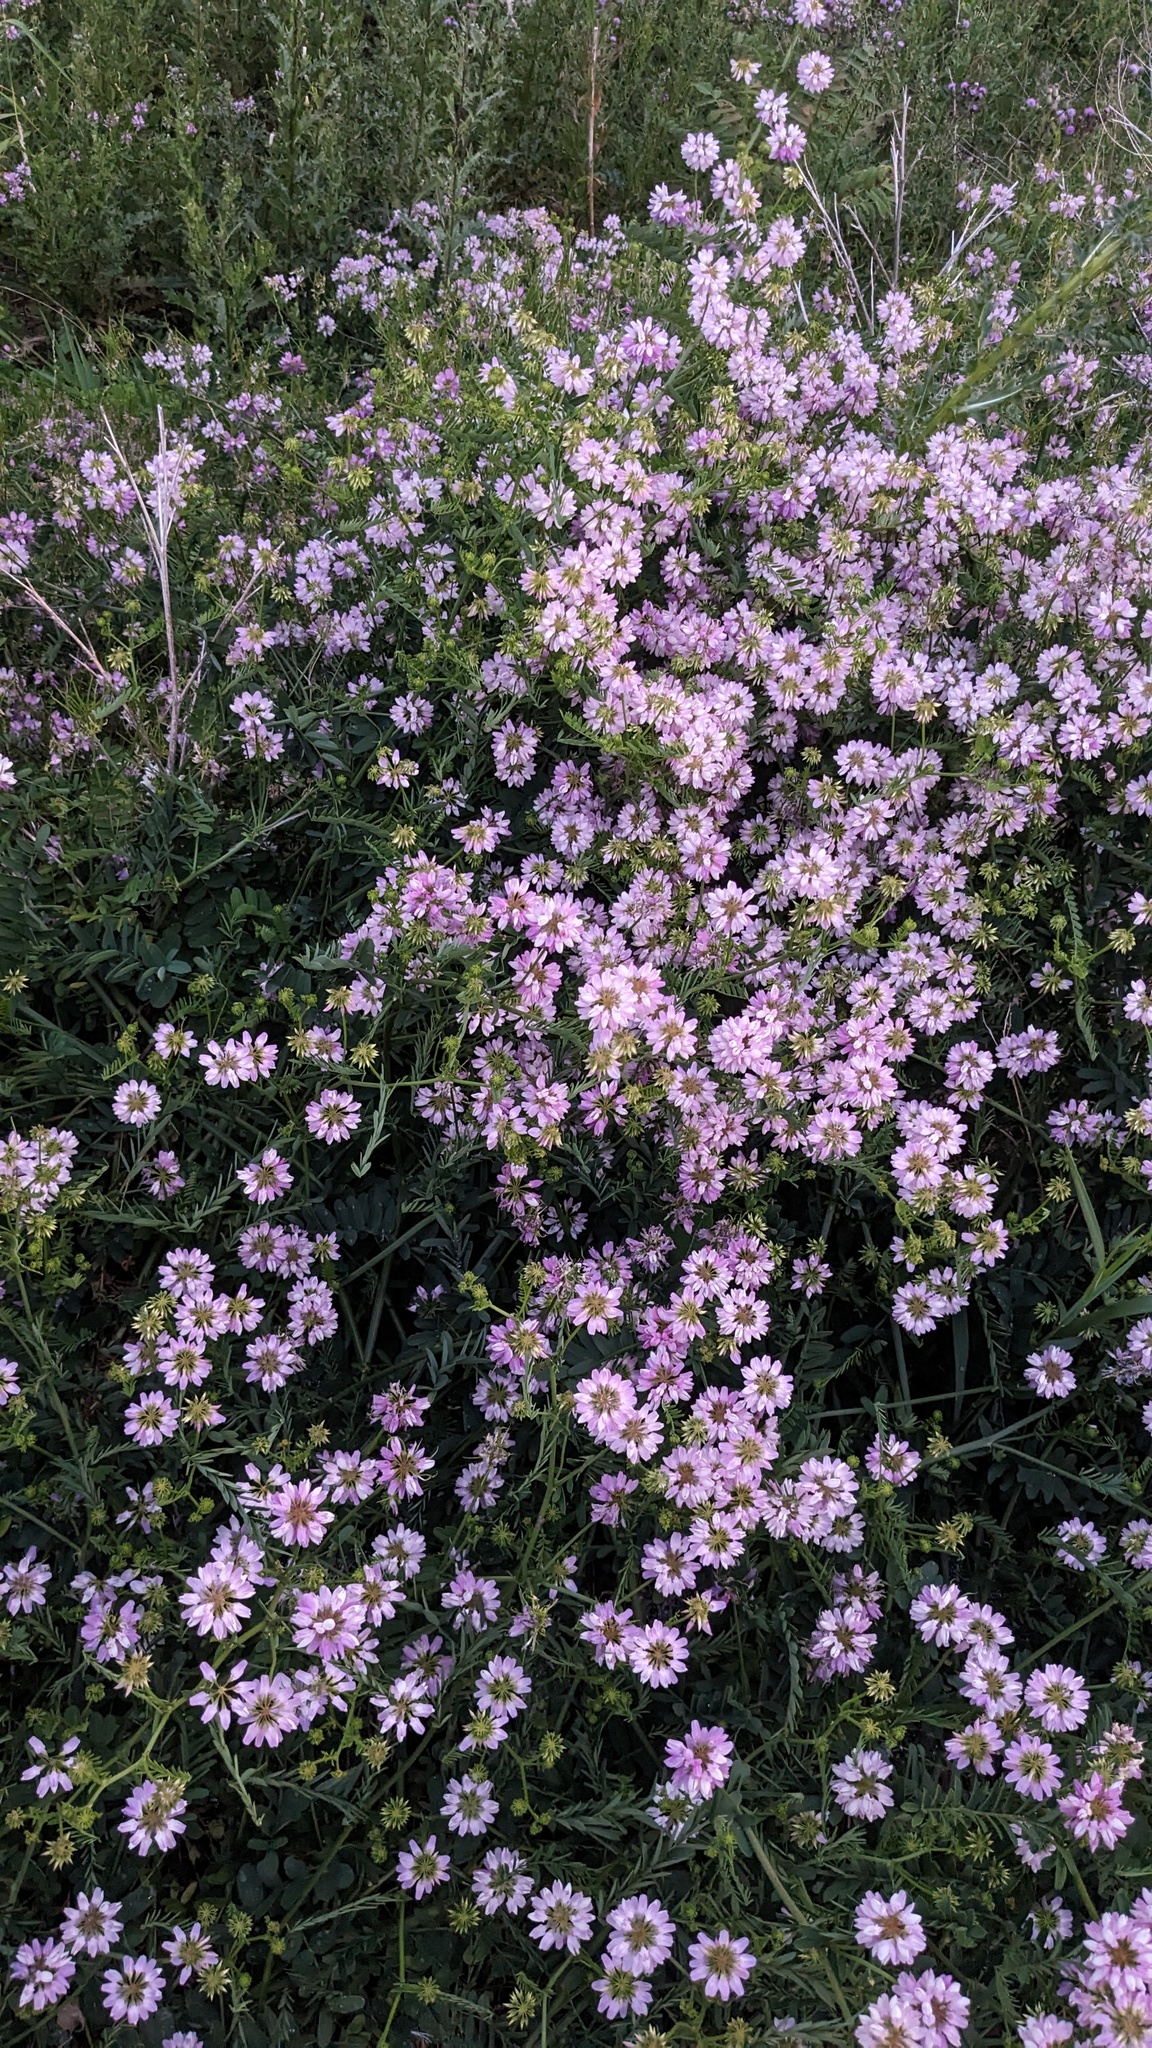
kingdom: Plantae
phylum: Tracheophyta
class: Magnoliopsida
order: Fabales
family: Fabaceae
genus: Coronilla
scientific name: Coronilla varia
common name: Crownvetch
